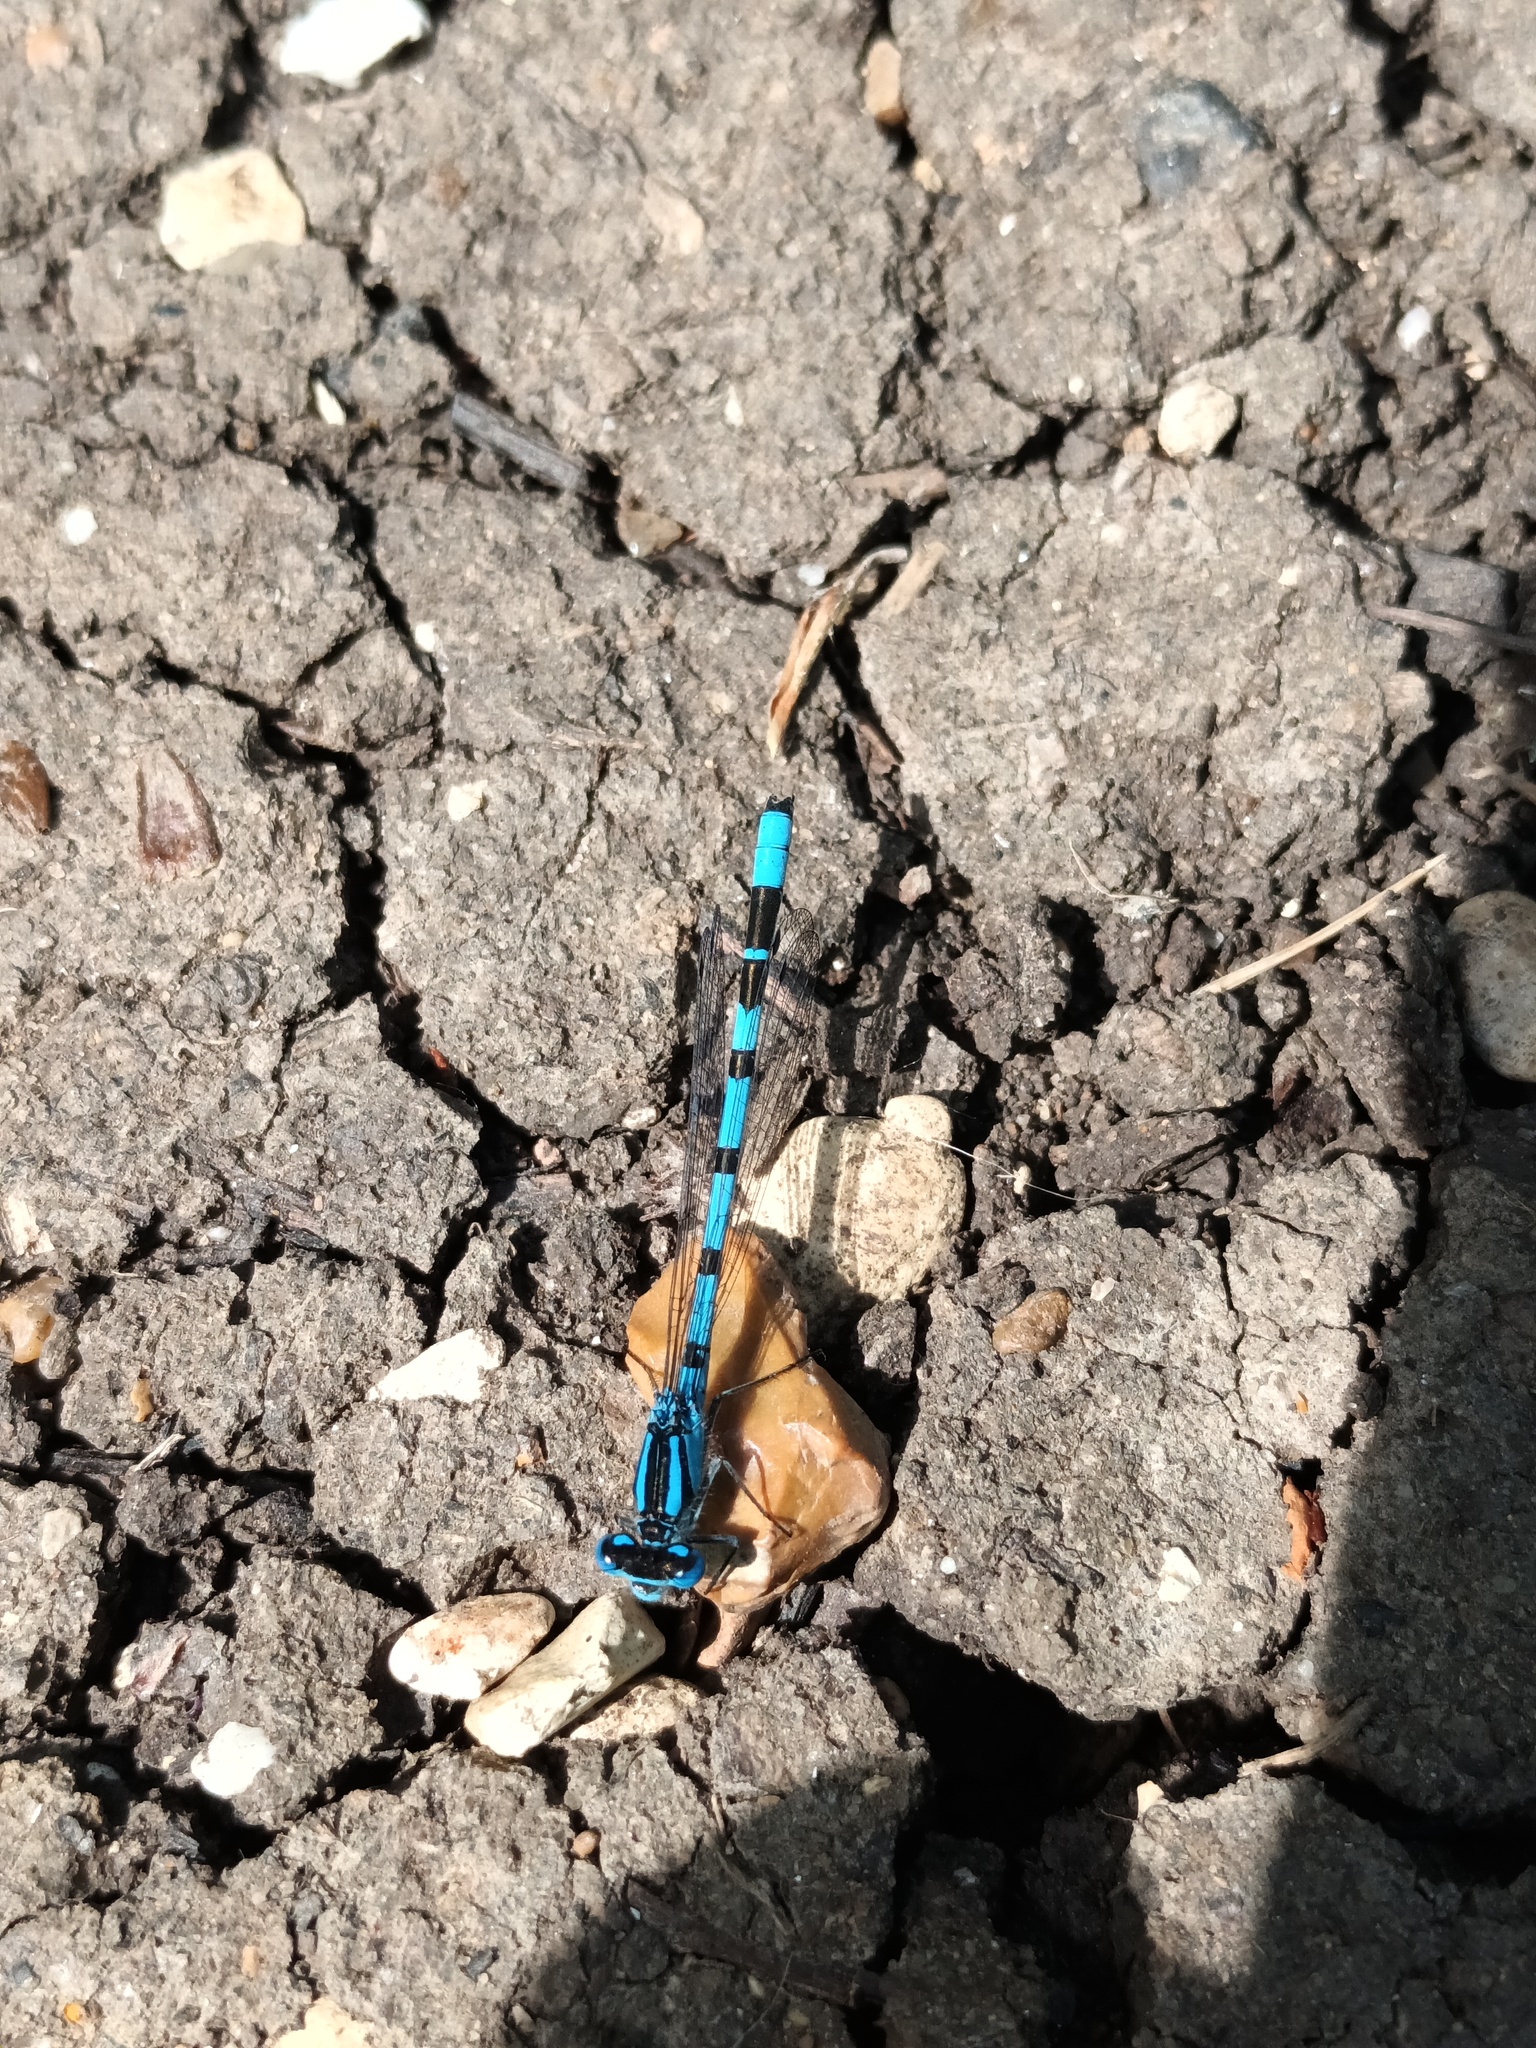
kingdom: Animalia
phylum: Arthropoda
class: Insecta
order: Odonata
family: Coenagrionidae
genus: Enallagma
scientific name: Enallagma cyathigerum
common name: Common blue damselfly
